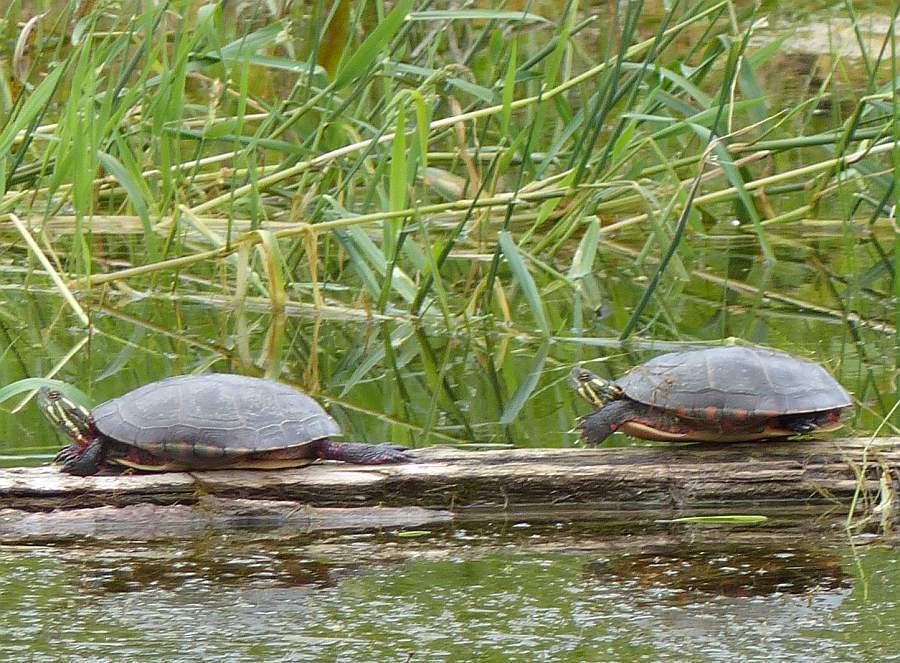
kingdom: Animalia
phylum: Chordata
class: Testudines
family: Emydidae
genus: Chrysemys
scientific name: Chrysemys picta
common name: Painted turtle
